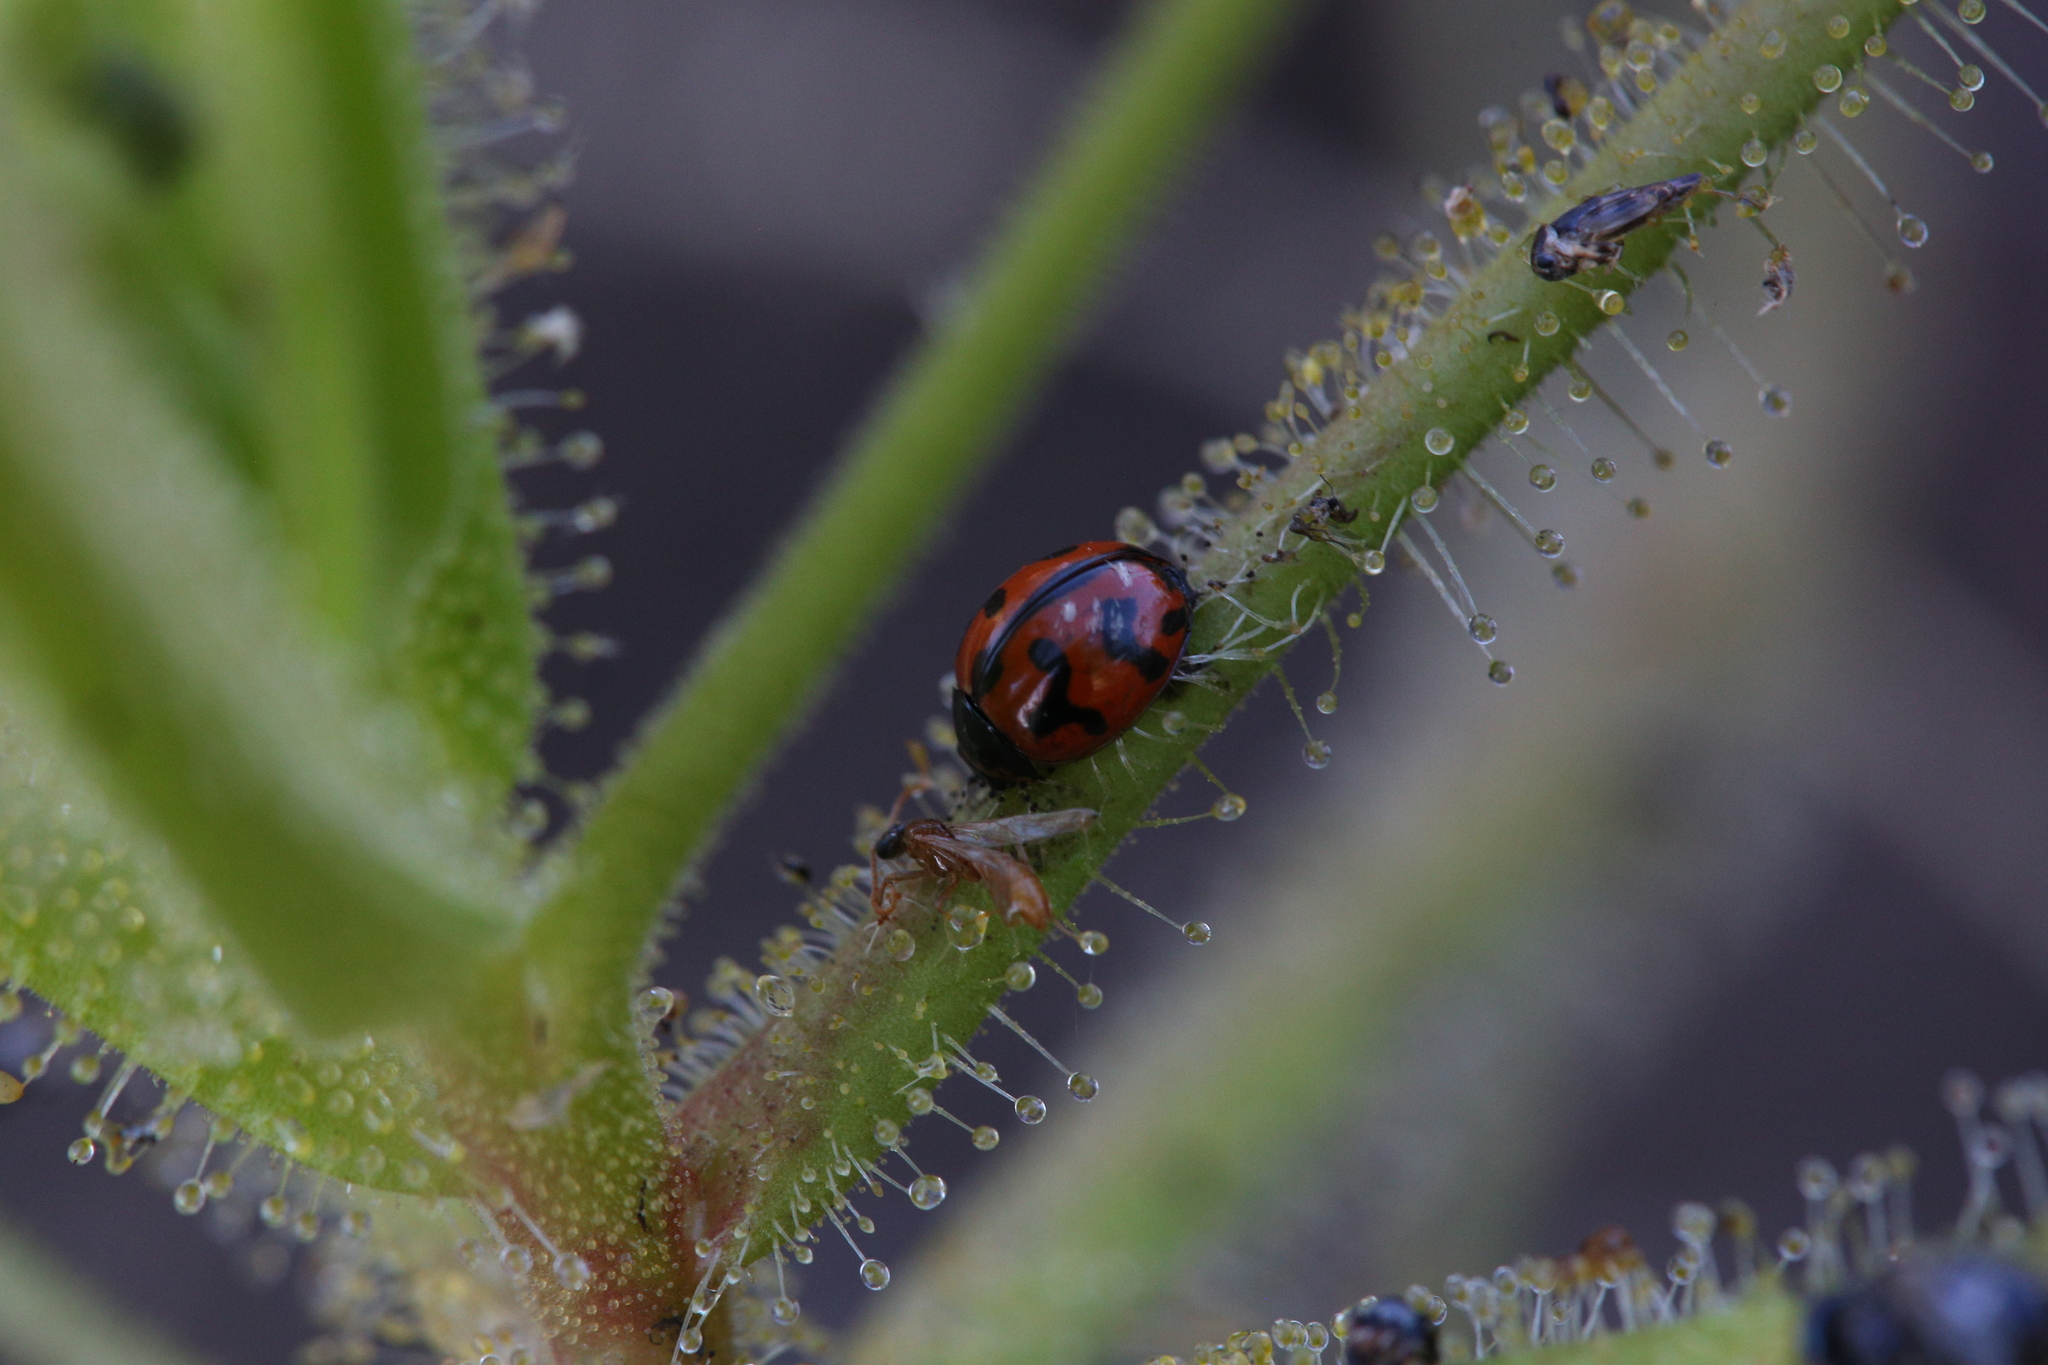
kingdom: Animalia
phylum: Arthropoda
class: Insecta
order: Coleoptera
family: Coccinellidae
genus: Coccinella
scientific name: Coccinella transversalis
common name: Transverse lady beetle
